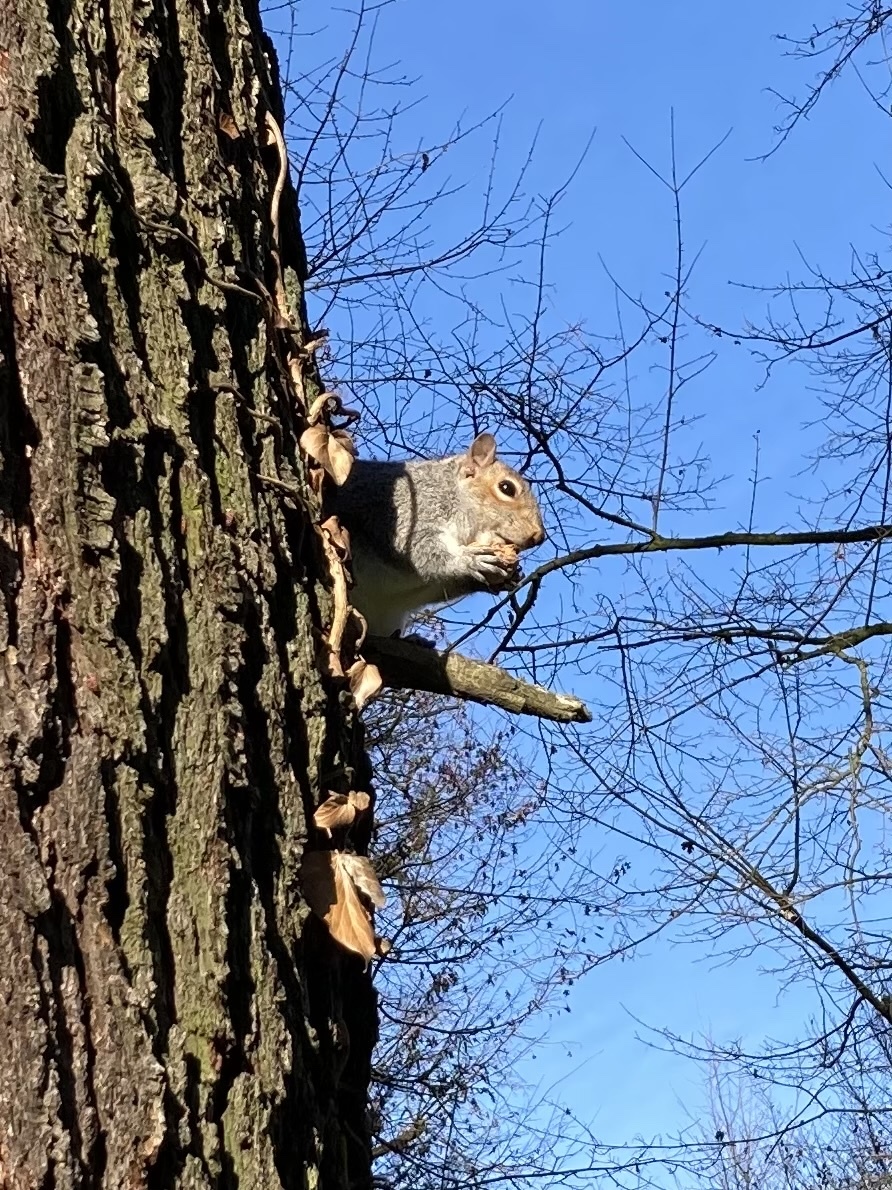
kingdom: Animalia
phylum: Chordata
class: Mammalia
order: Rodentia
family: Sciuridae
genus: Sciurus
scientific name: Sciurus carolinensis
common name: Eastern gray squirrel
